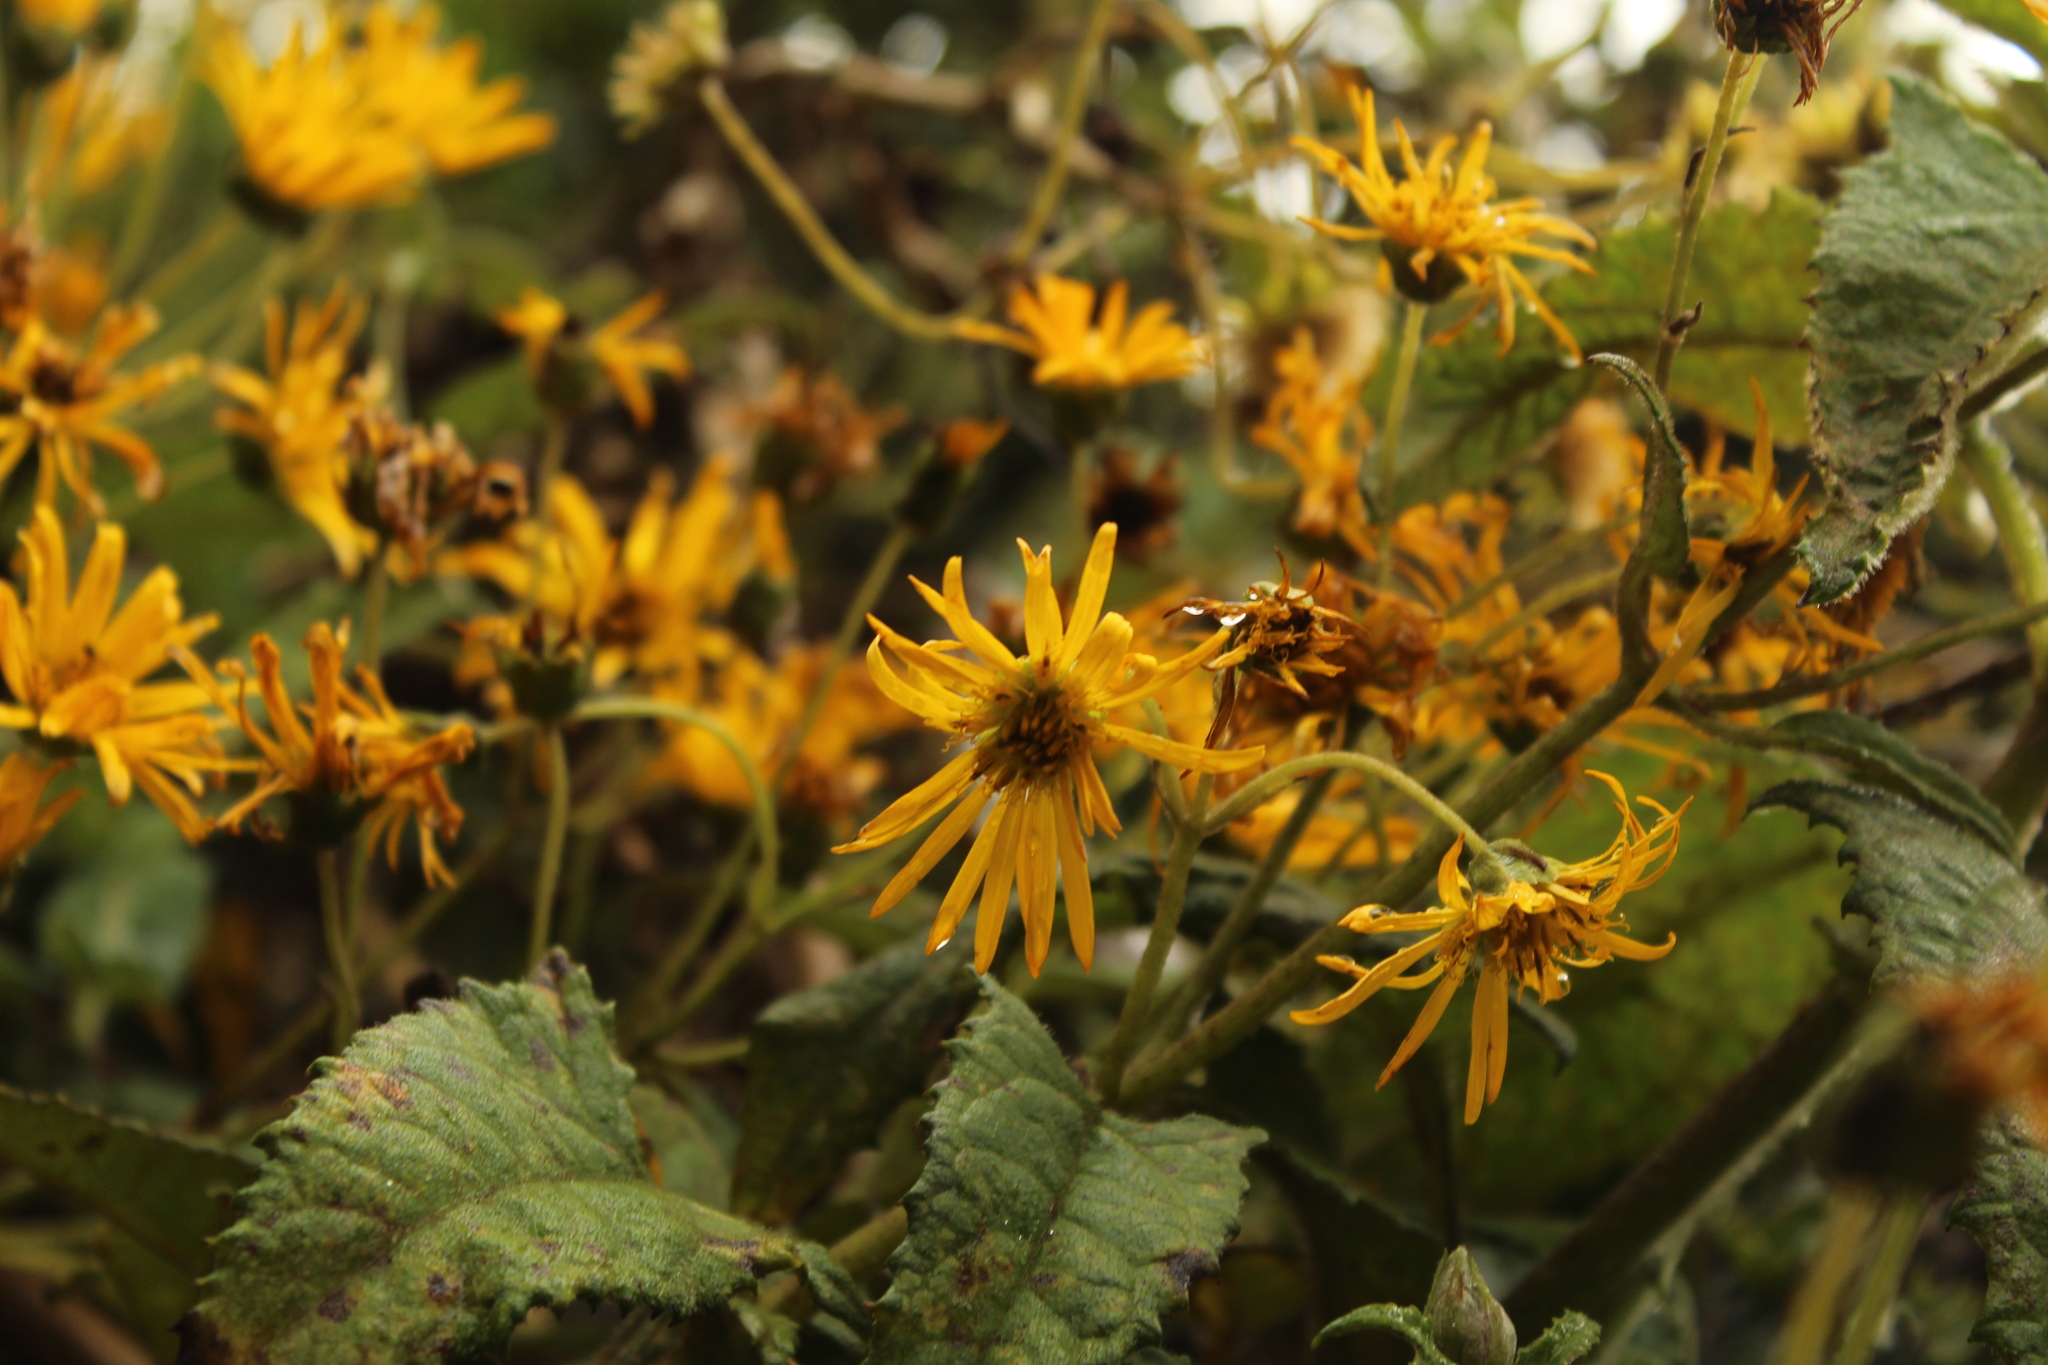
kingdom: Plantae
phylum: Tracheophyta
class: Magnoliopsida
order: Asterales
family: Asteraceae
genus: Munnozia
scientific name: Munnozia senecionidis
